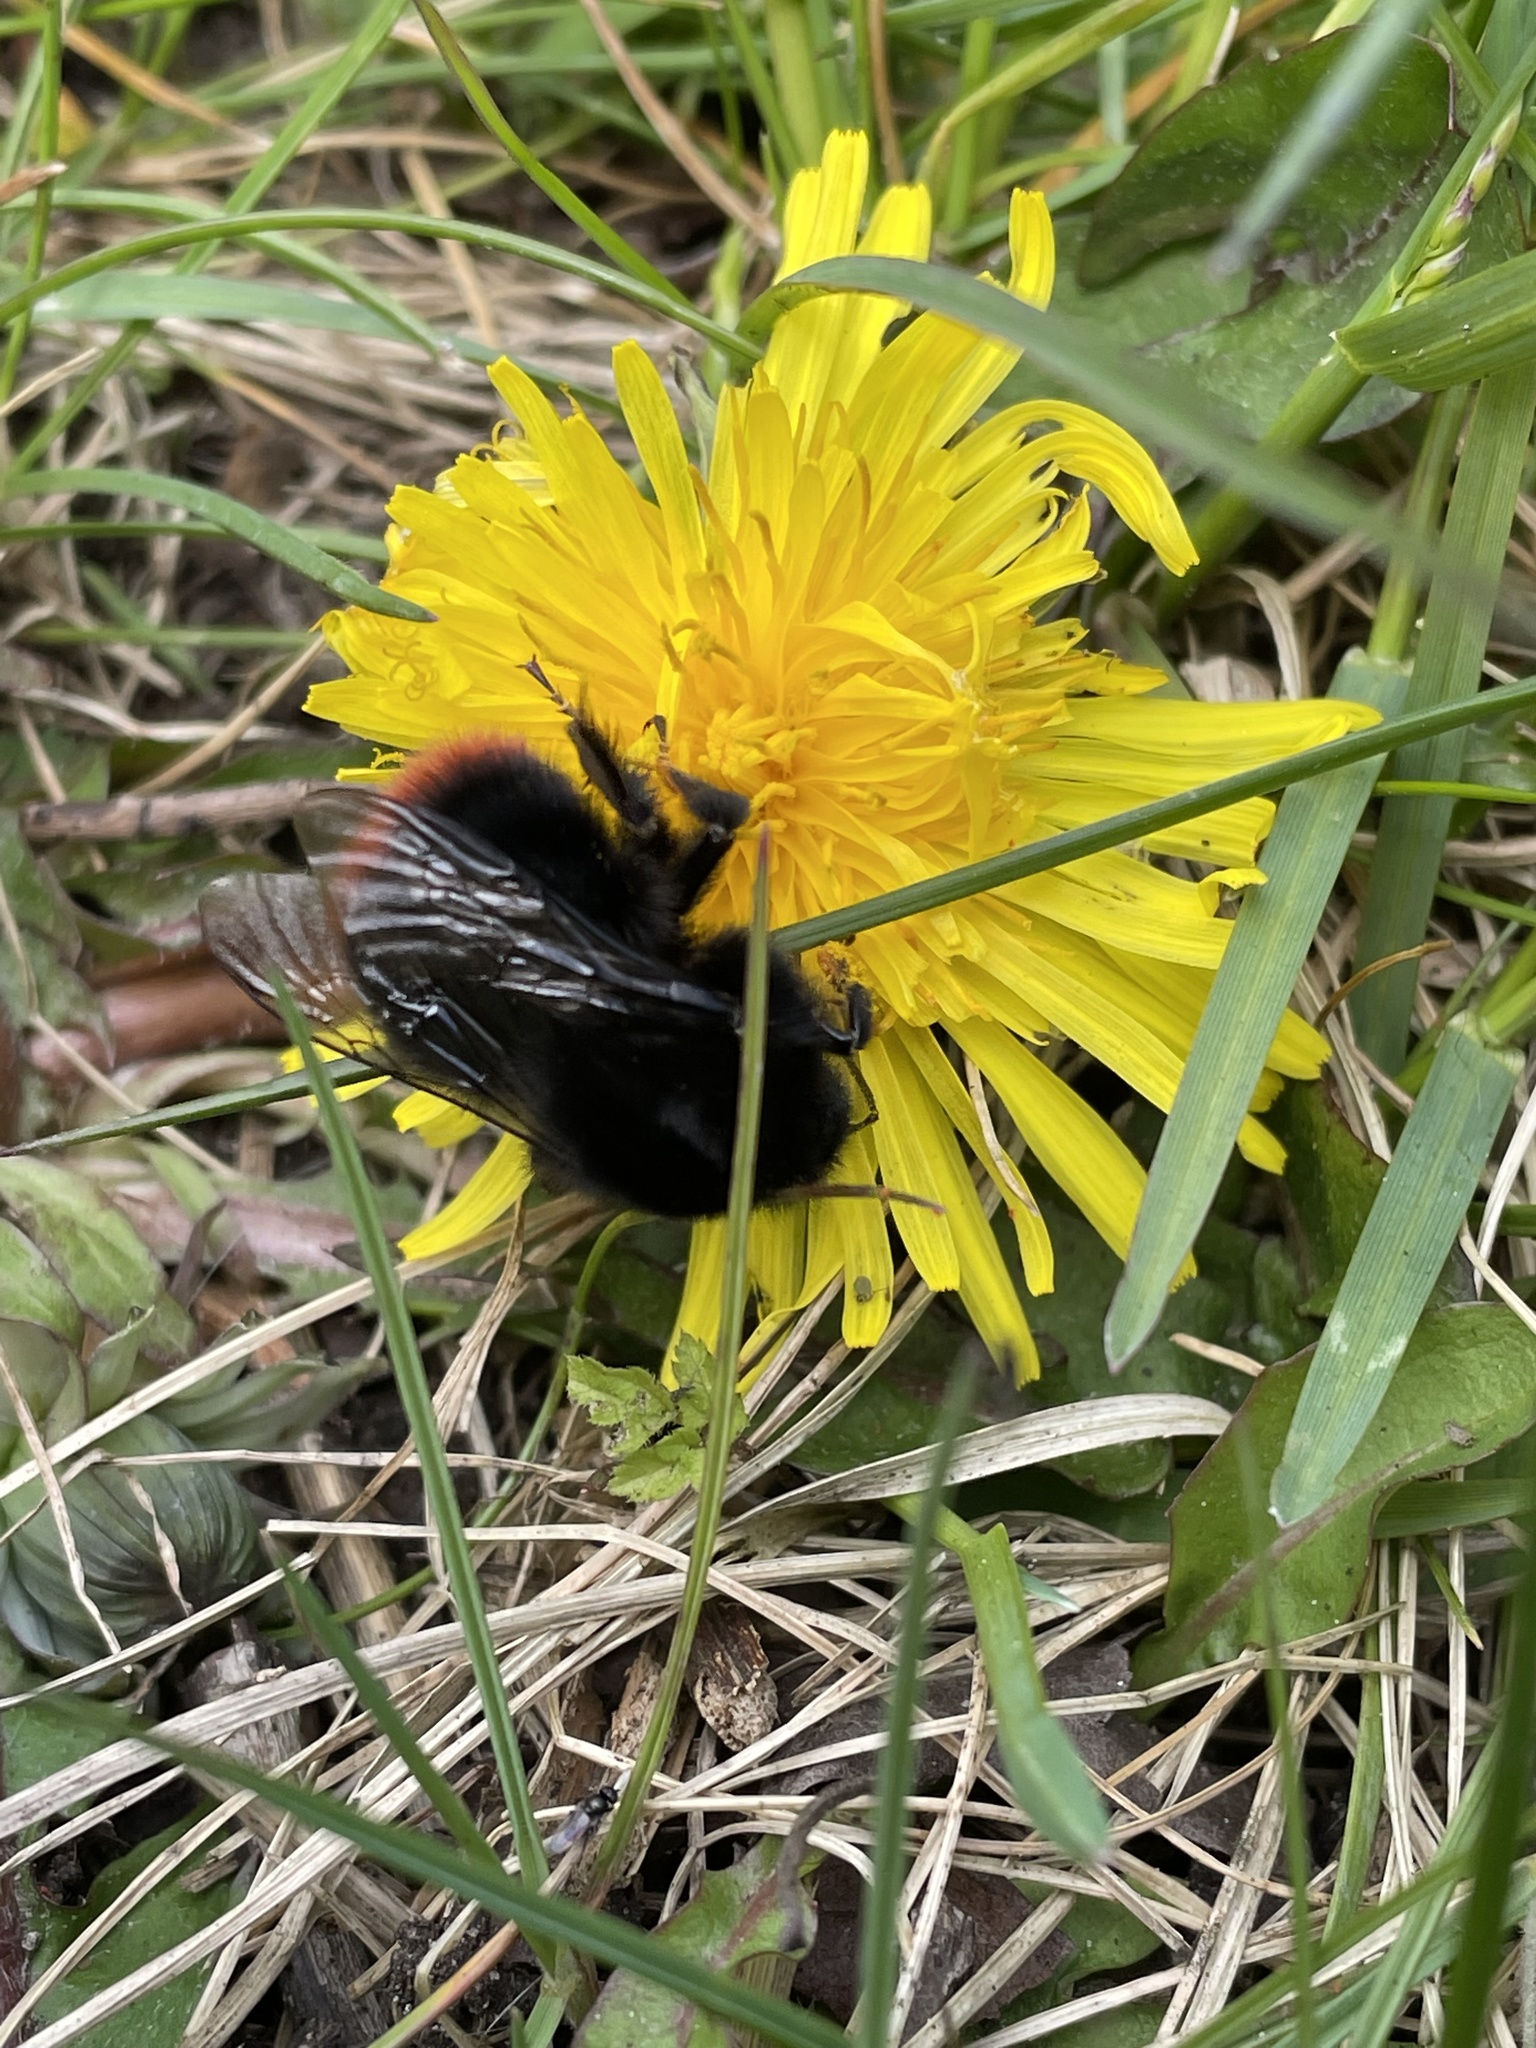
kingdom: Animalia
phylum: Arthropoda
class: Insecta
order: Hymenoptera
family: Apidae
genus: Bombus
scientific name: Bombus lapidarius
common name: Large red-tailed humble-bee
